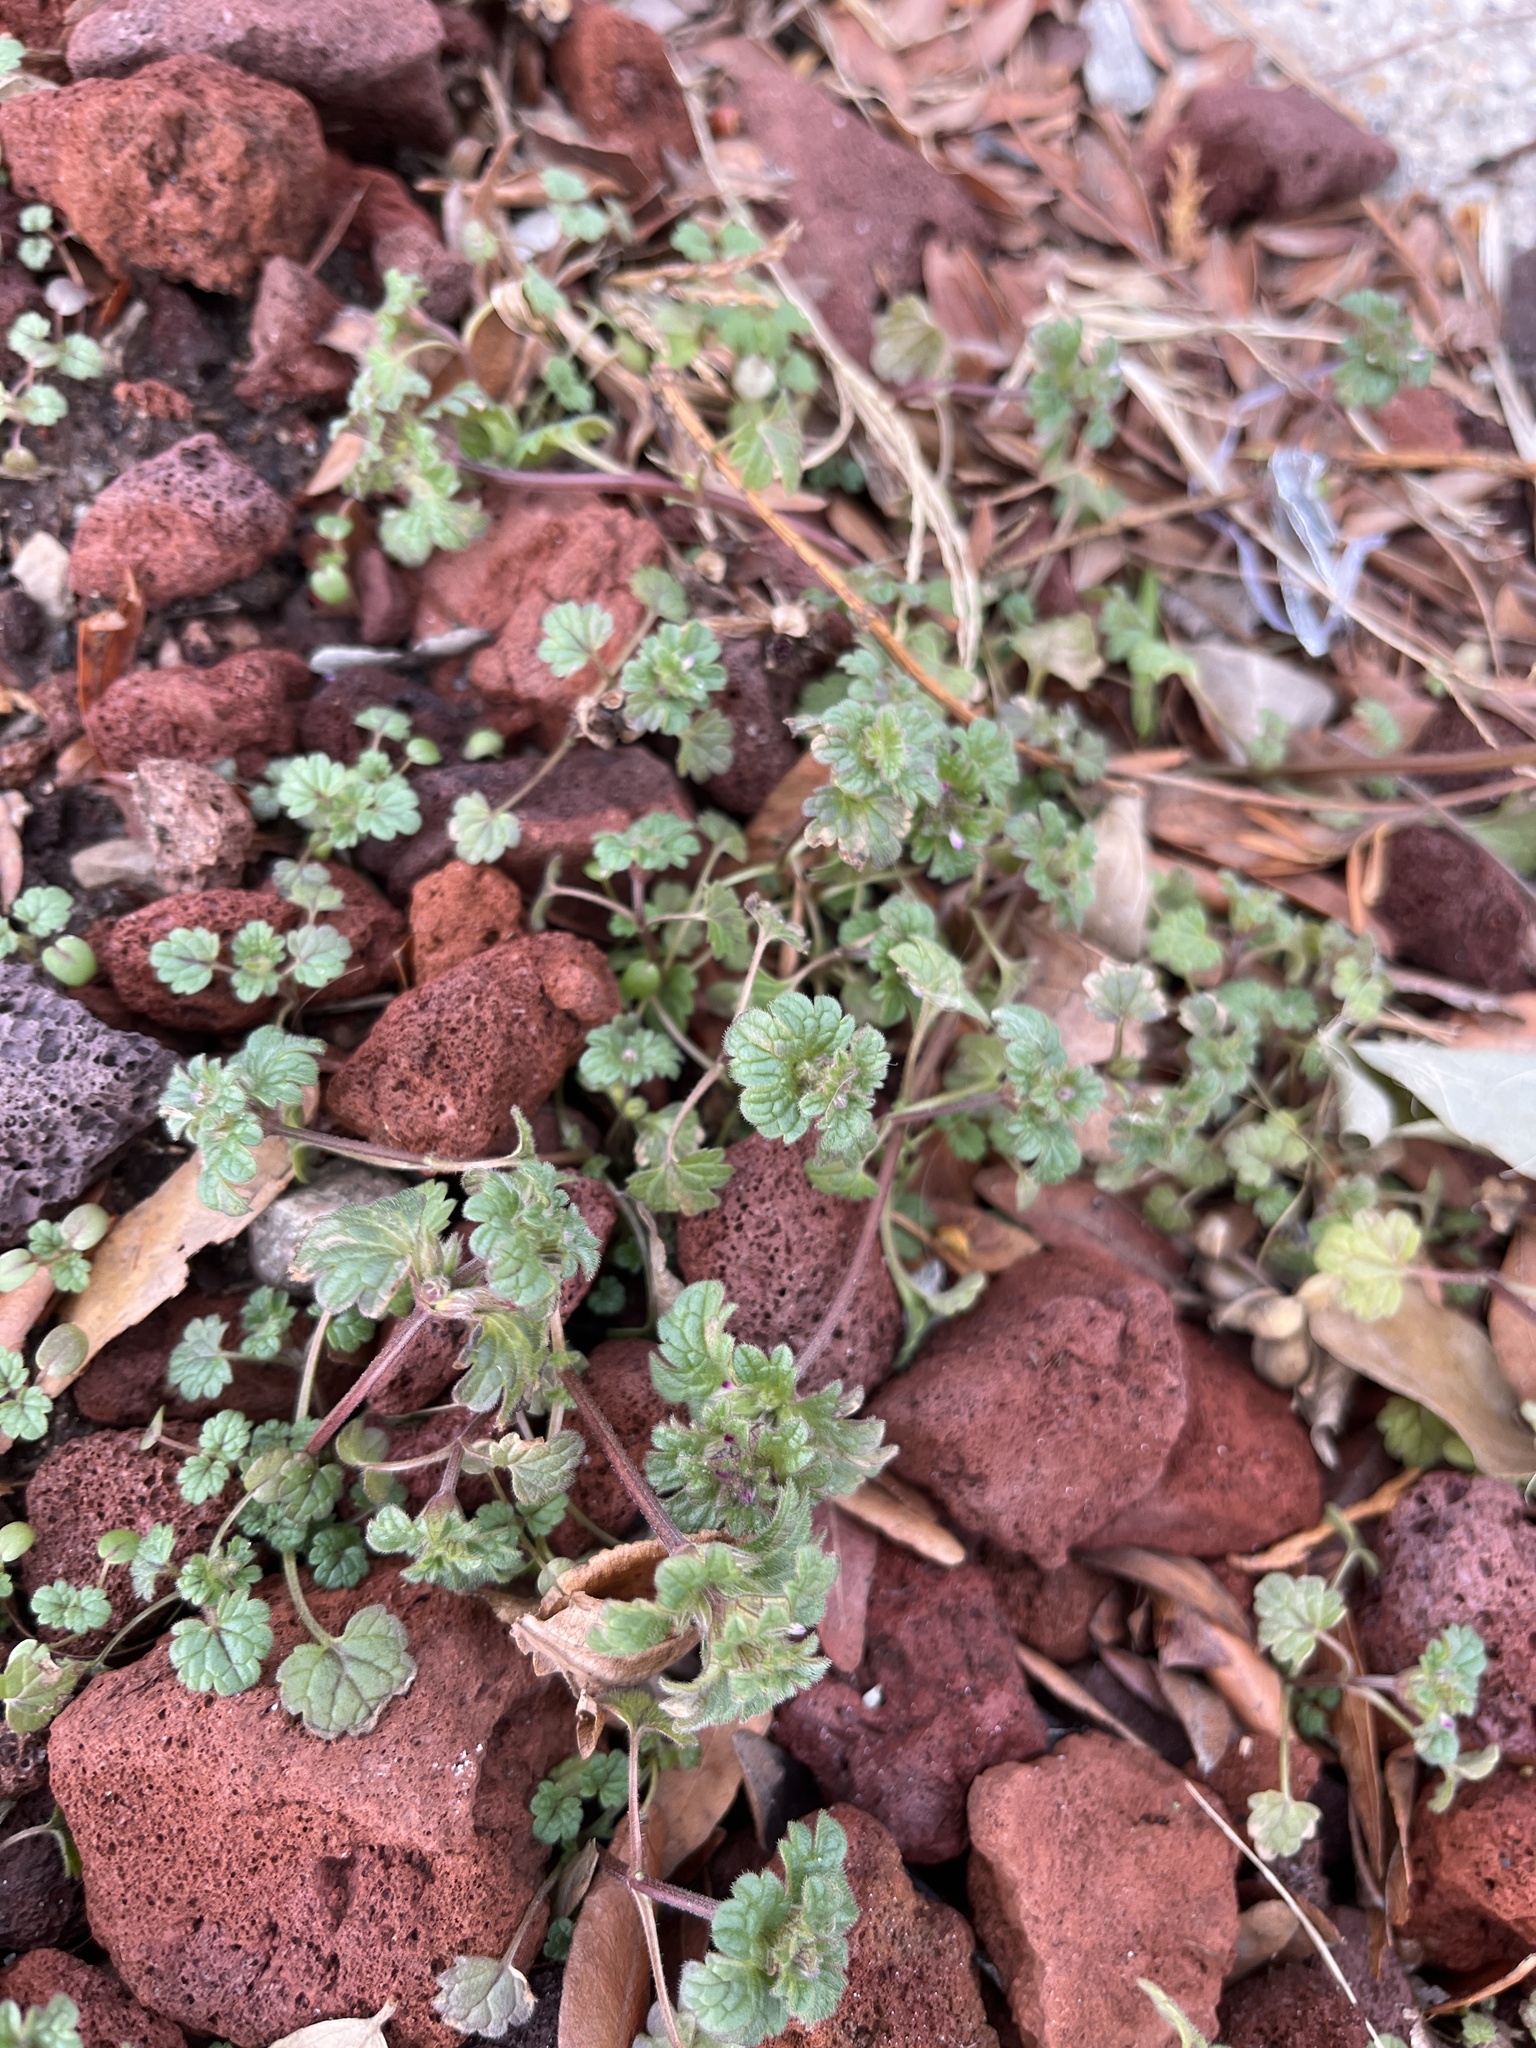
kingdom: Plantae
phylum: Tracheophyta
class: Magnoliopsida
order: Lamiales
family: Lamiaceae
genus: Lamium
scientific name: Lamium amplexicaule
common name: Henbit dead-nettle
